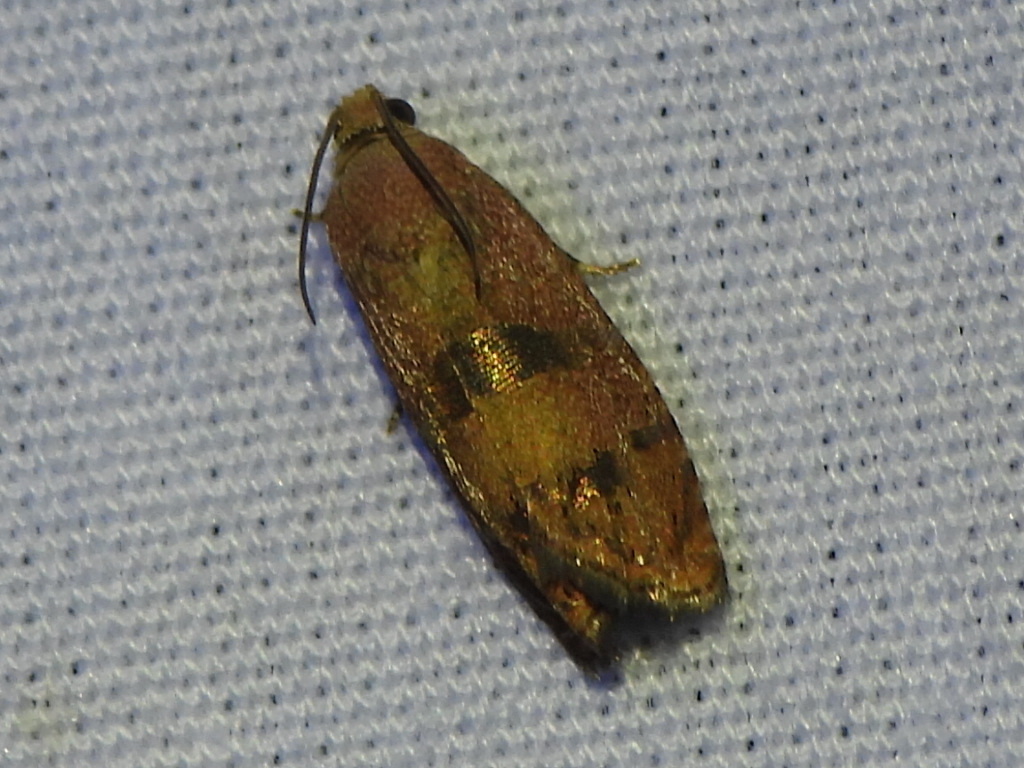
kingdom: Animalia
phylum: Arthropoda
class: Insecta
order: Lepidoptera
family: Tortricidae
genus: Cydia
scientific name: Cydia latiferreana
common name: Filbertworm moth
